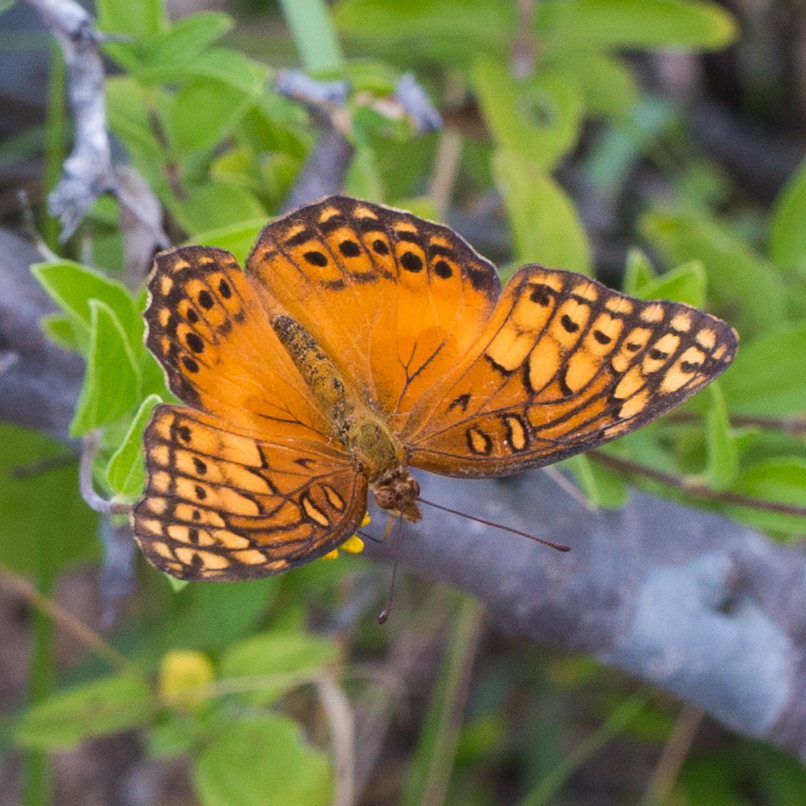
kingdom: Animalia
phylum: Arthropoda
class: Insecta
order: Lepidoptera
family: Nymphalidae
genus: Euptoieta
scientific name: Euptoieta hegesia
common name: Mexican fritillary
